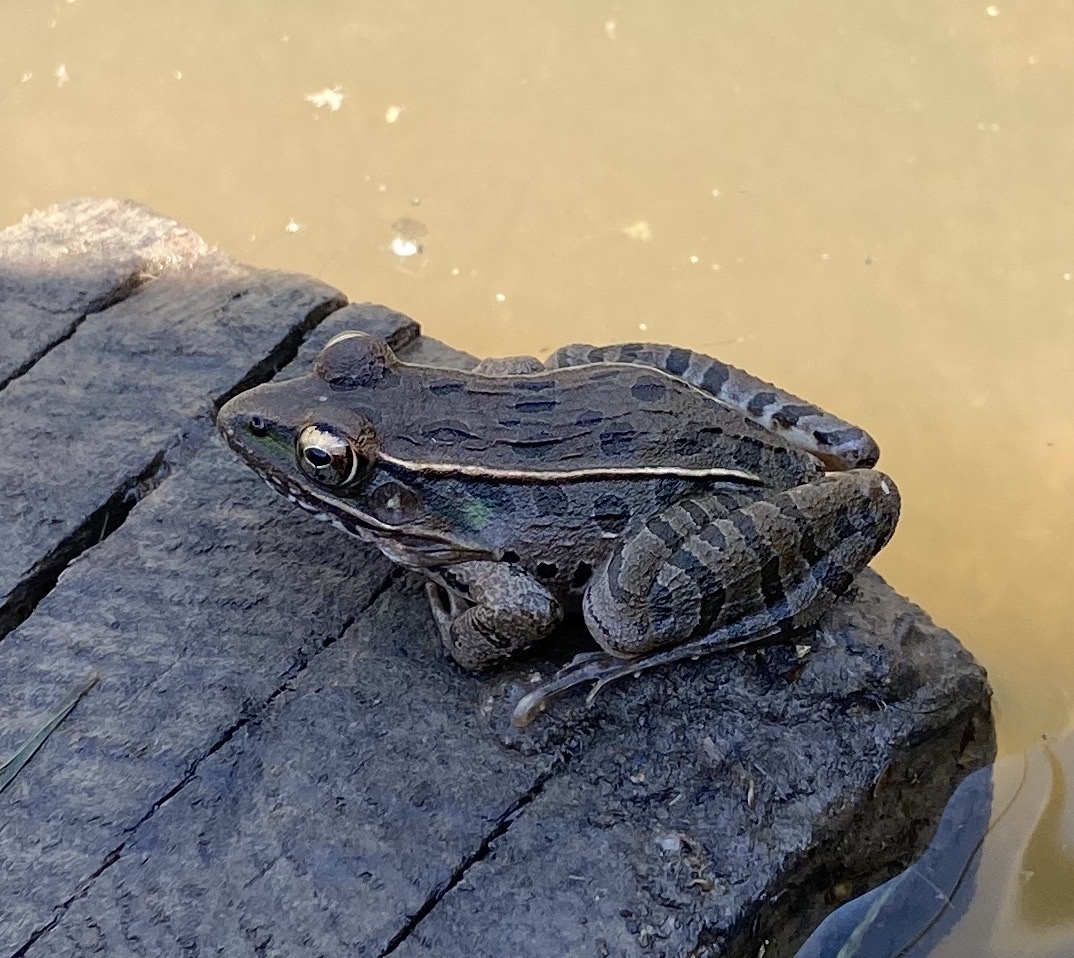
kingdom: Animalia
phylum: Chordata
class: Amphibia
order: Anura
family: Ranidae
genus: Lithobates
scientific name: Lithobates sphenocephalus
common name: Southern leopard frog
